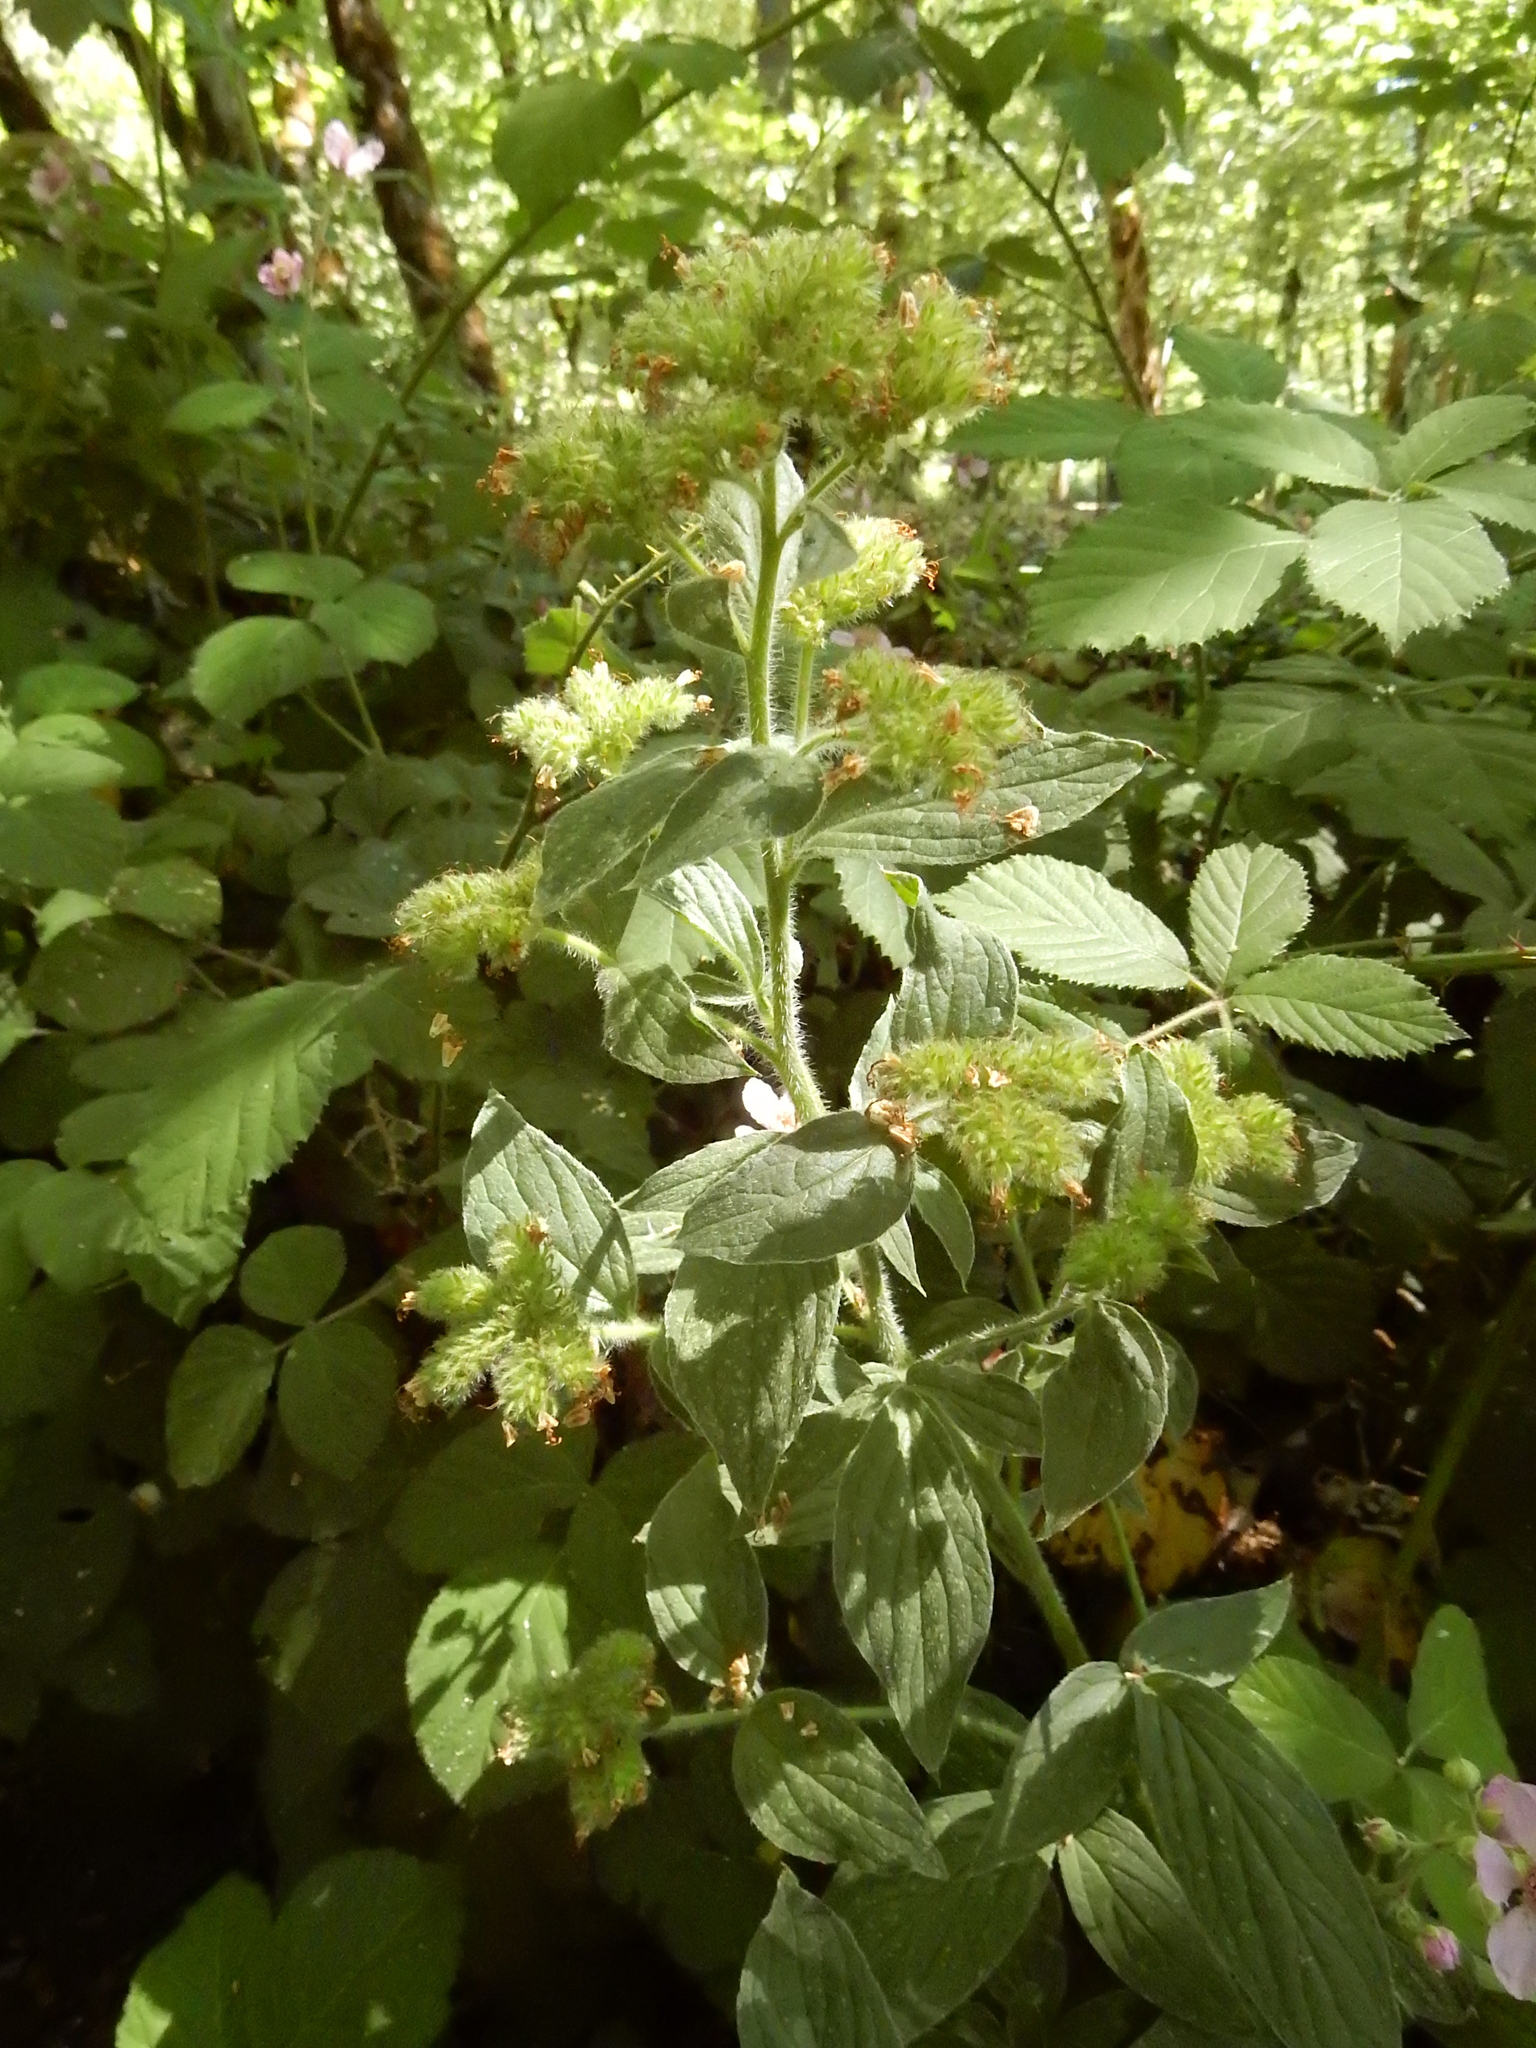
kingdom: Plantae
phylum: Tracheophyta
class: Magnoliopsida
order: Boraginales
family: Hydrophyllaceae
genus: Phacelia
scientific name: Phacelia nemoralis
